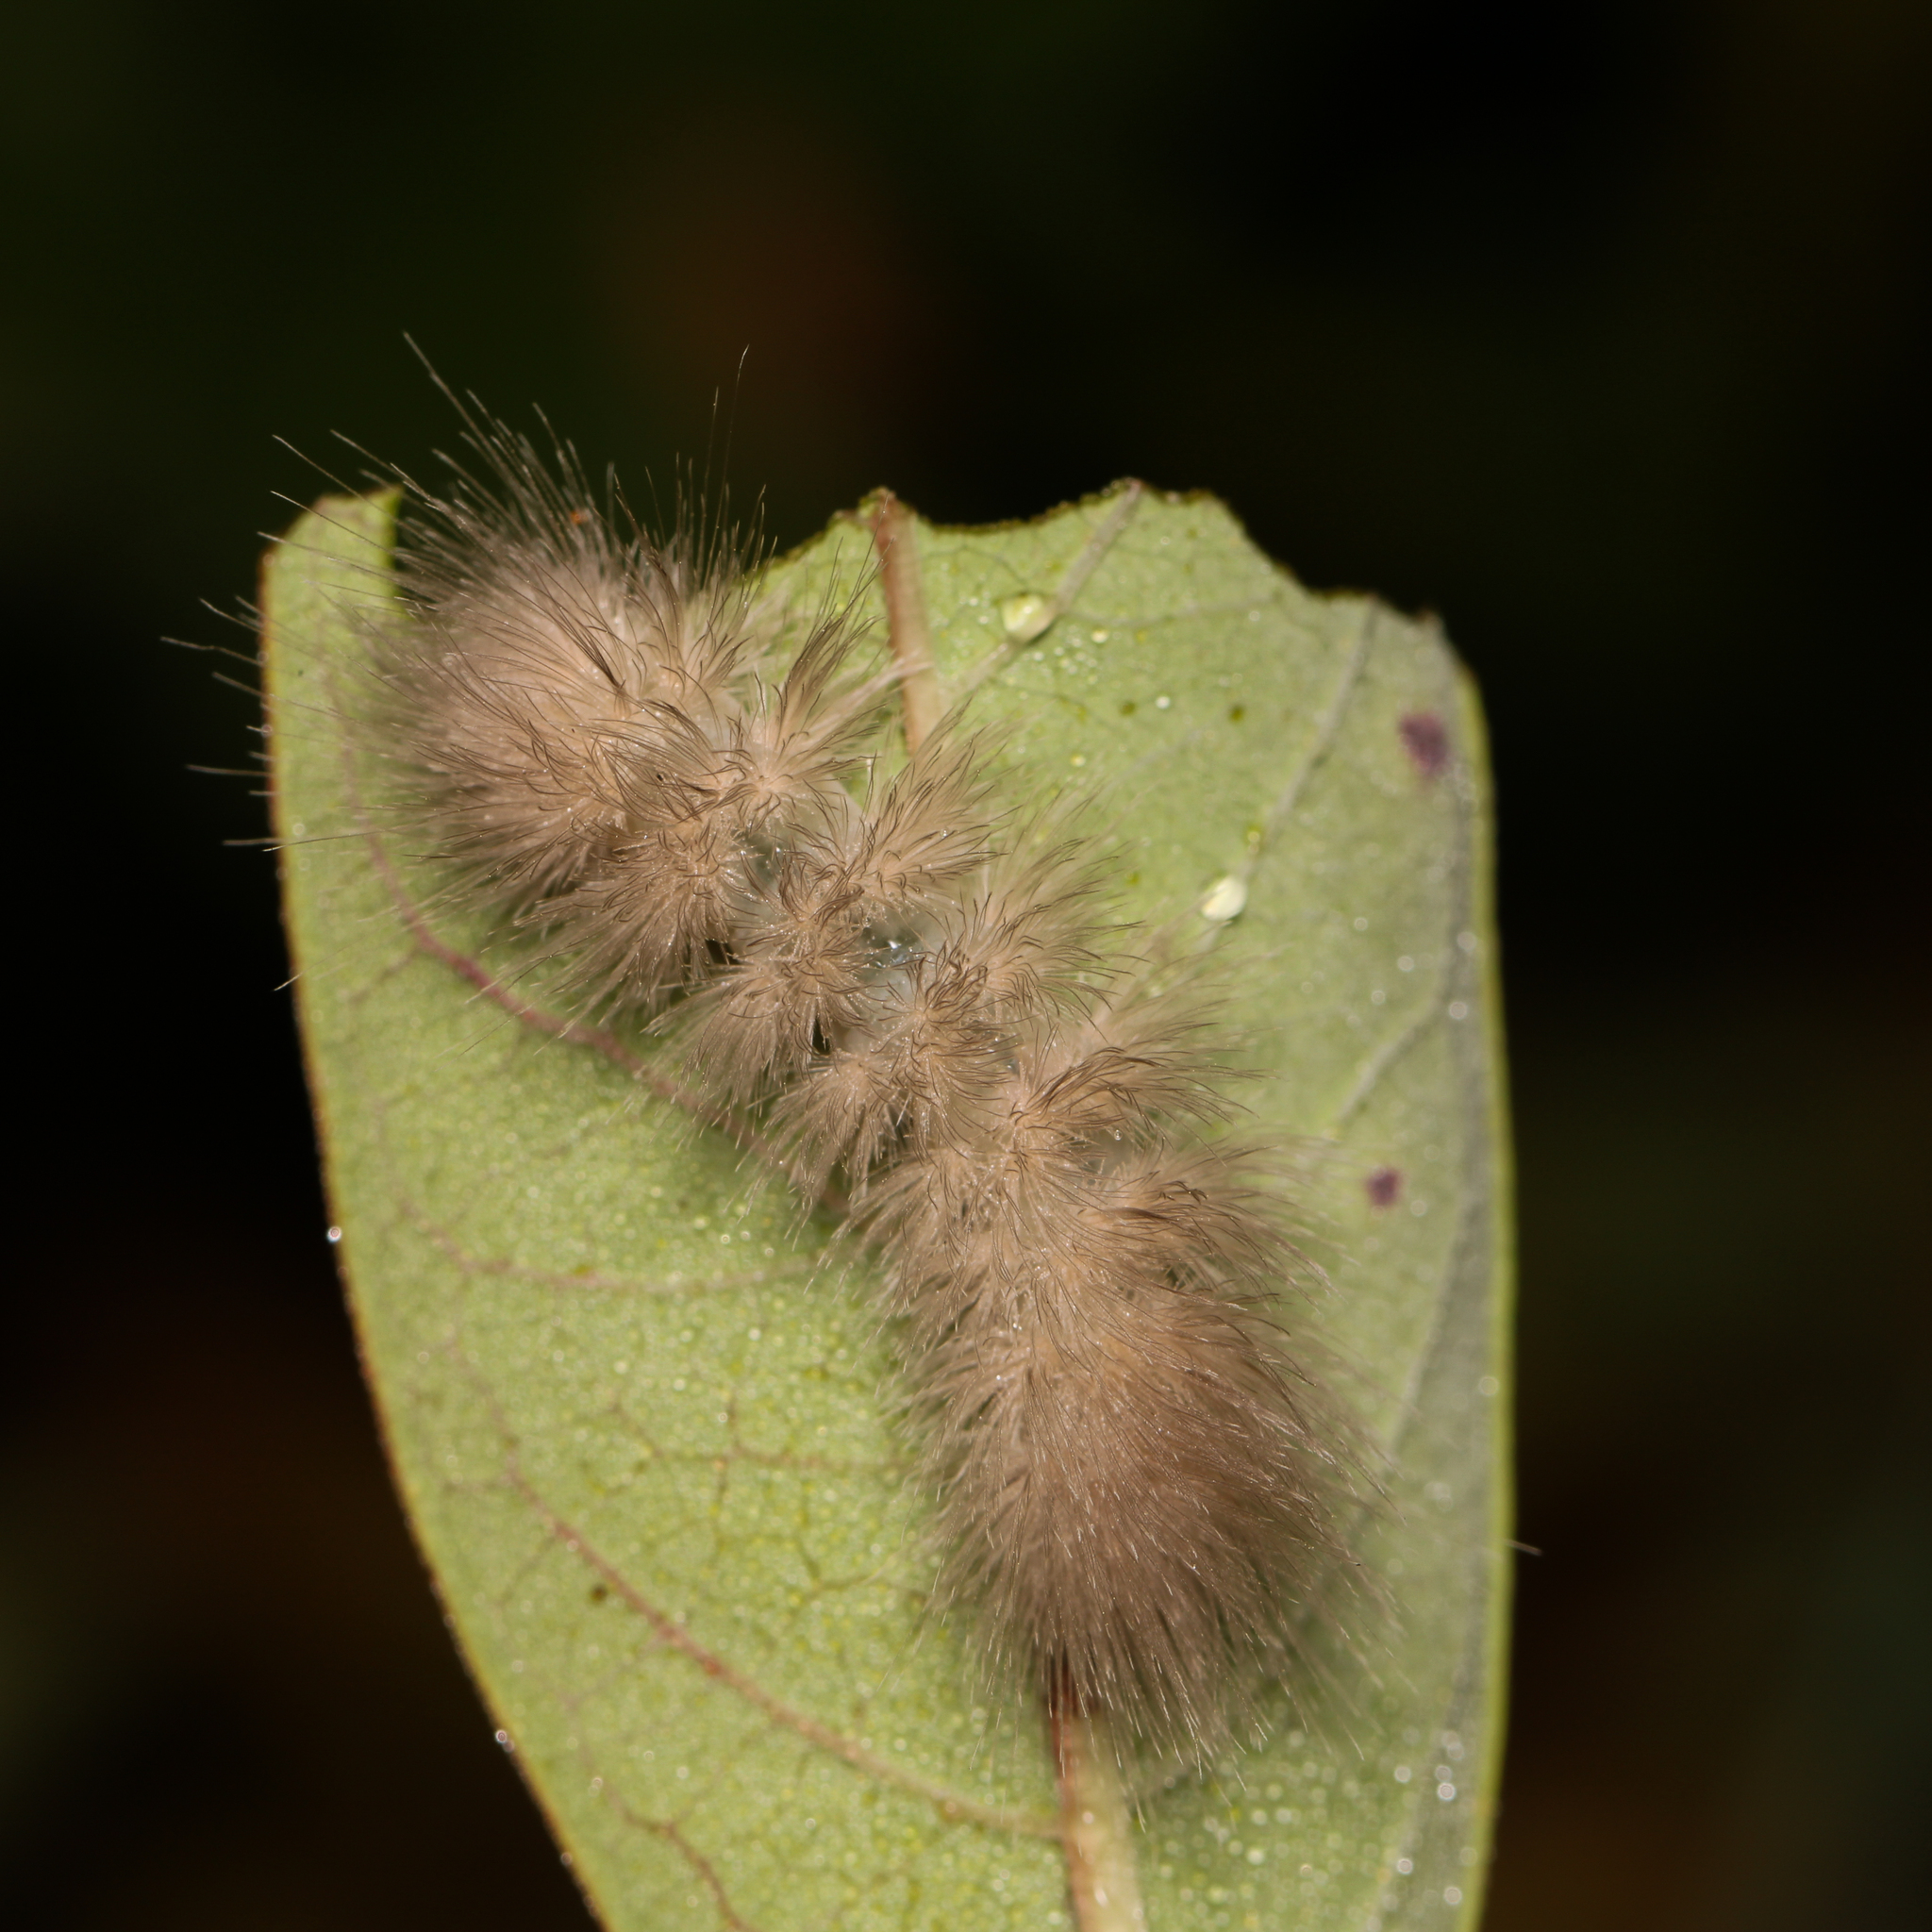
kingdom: Animalia
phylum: Arthropoda
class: Insecta
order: Lepidoptera
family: Erebidae
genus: Cycnia
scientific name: Cycnia tenera
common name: Delicate cycnia moth
